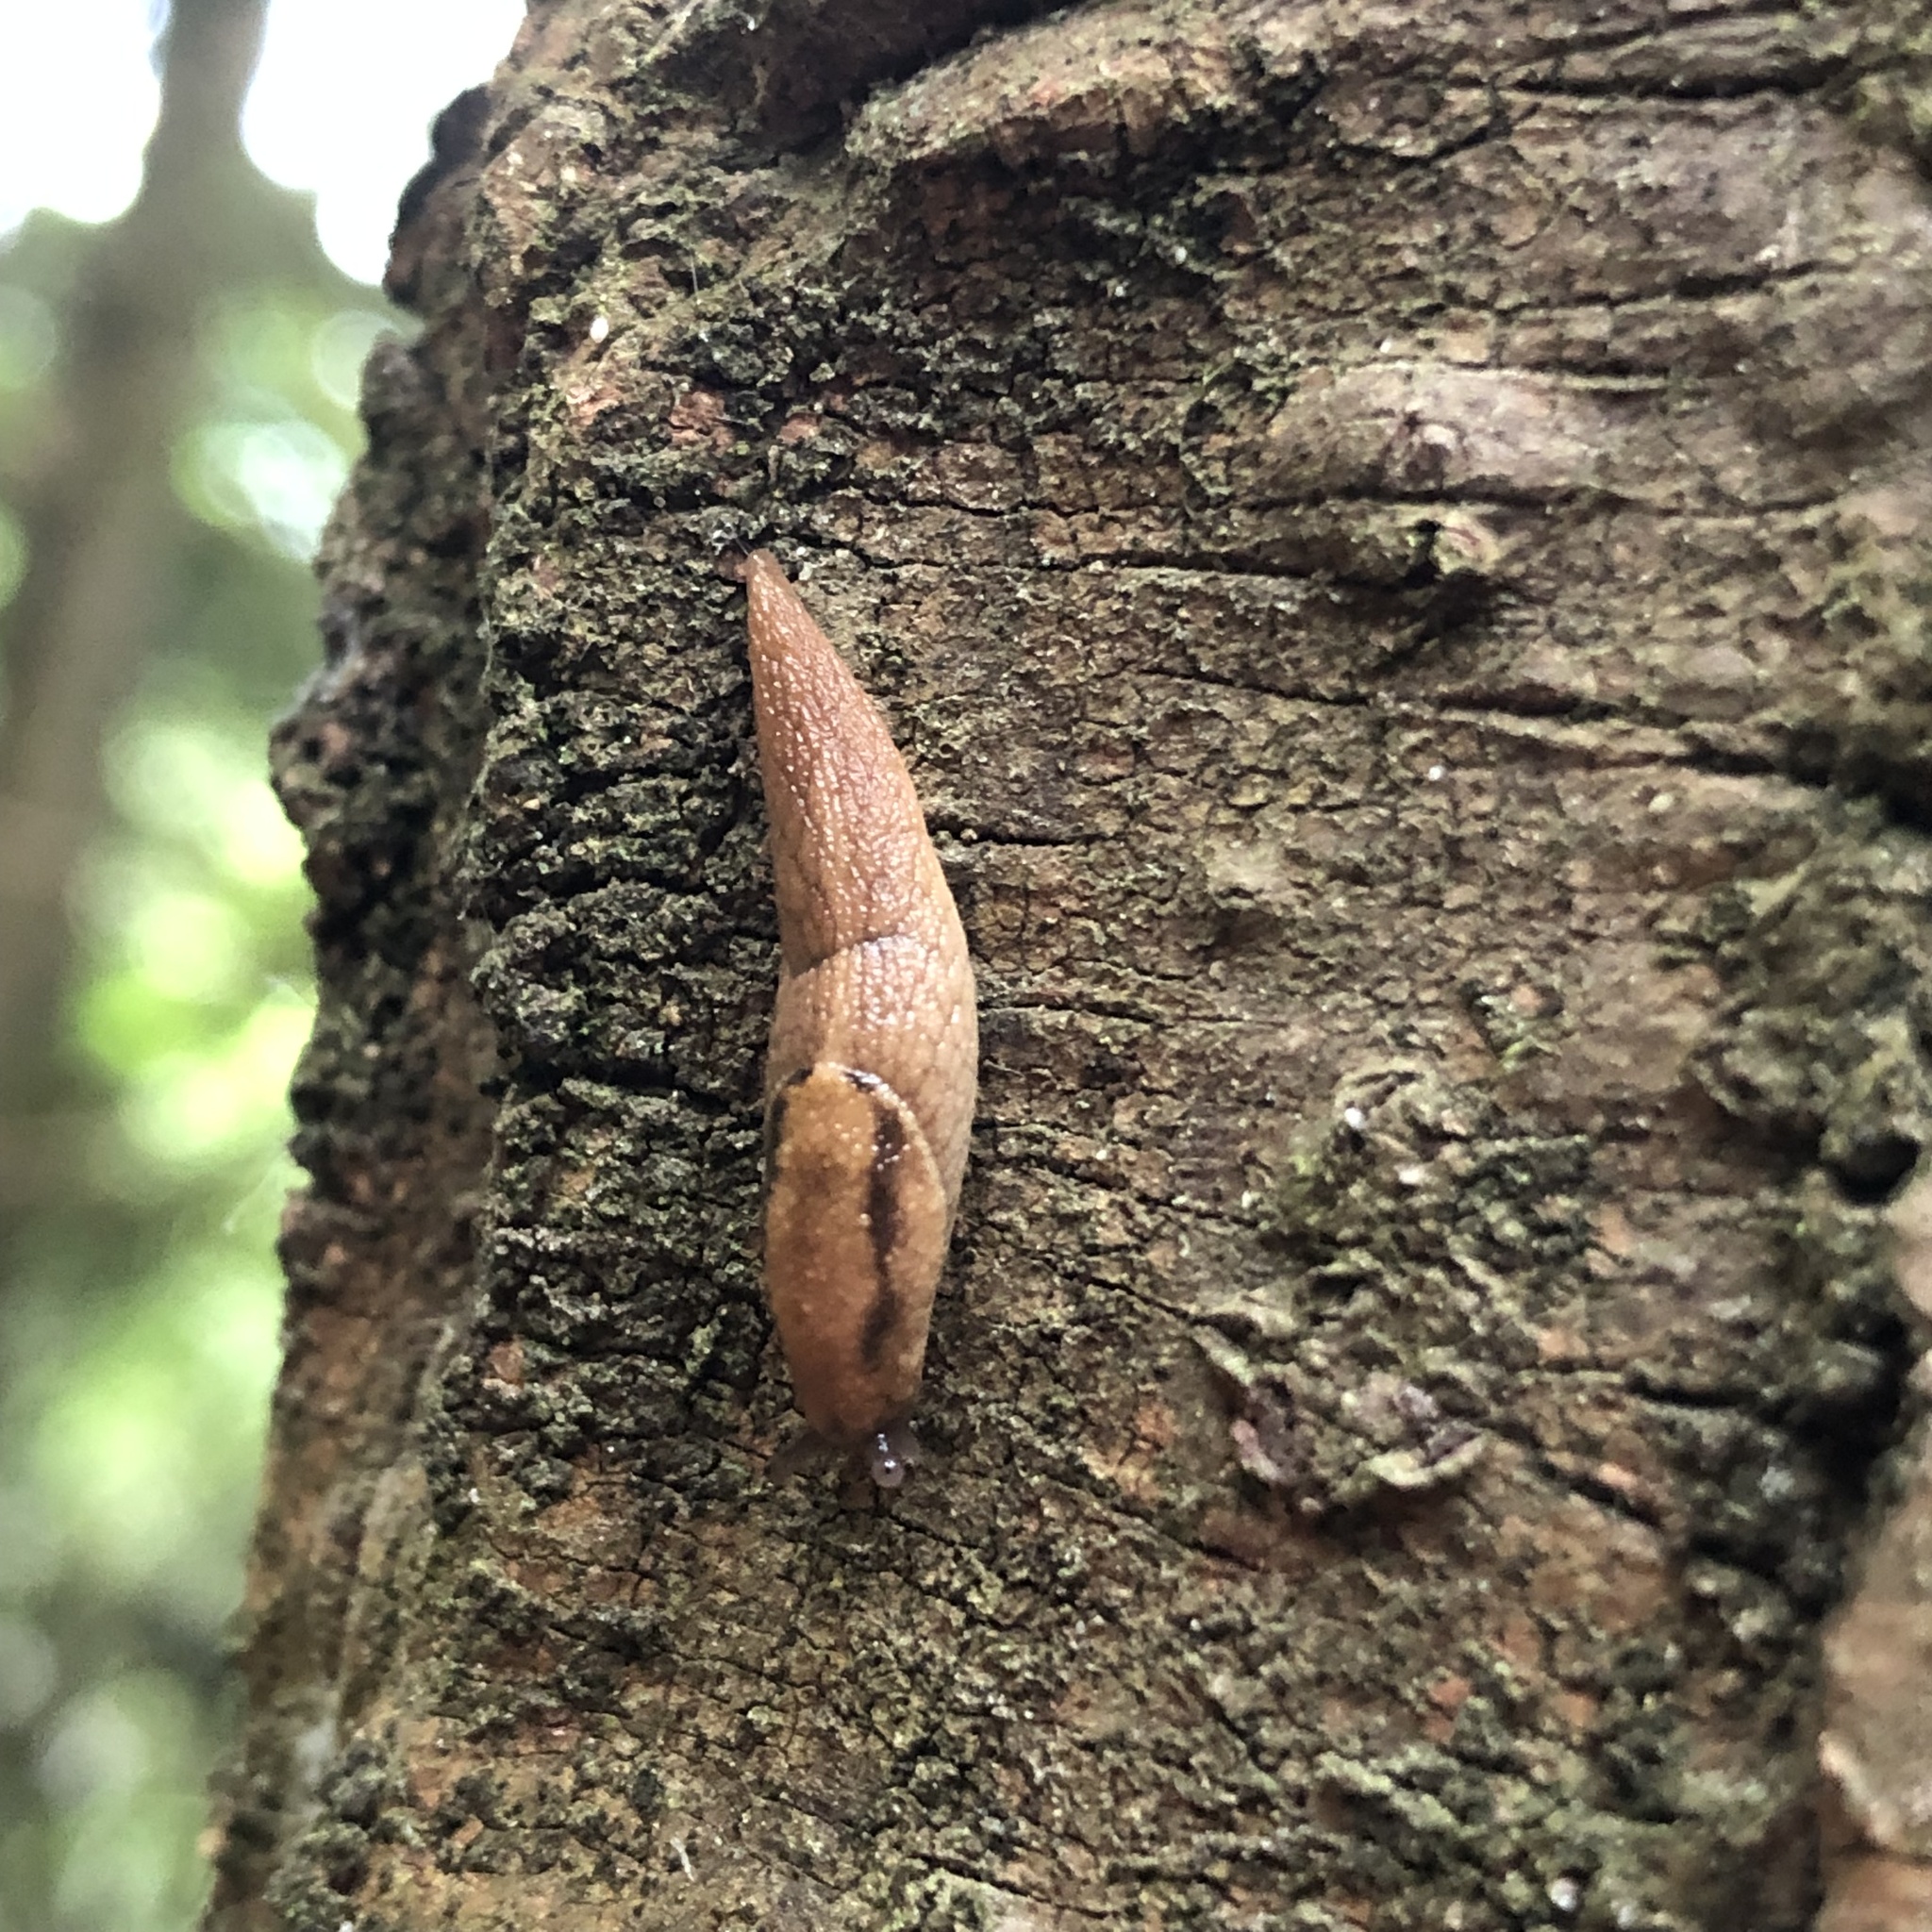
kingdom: Animalia
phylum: Mollusca
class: Gastropoda
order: Stylommatophora
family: Ariolimacidae
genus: Prophysaon
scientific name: Prophysaon andersonii
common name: Reticulate taildropper
